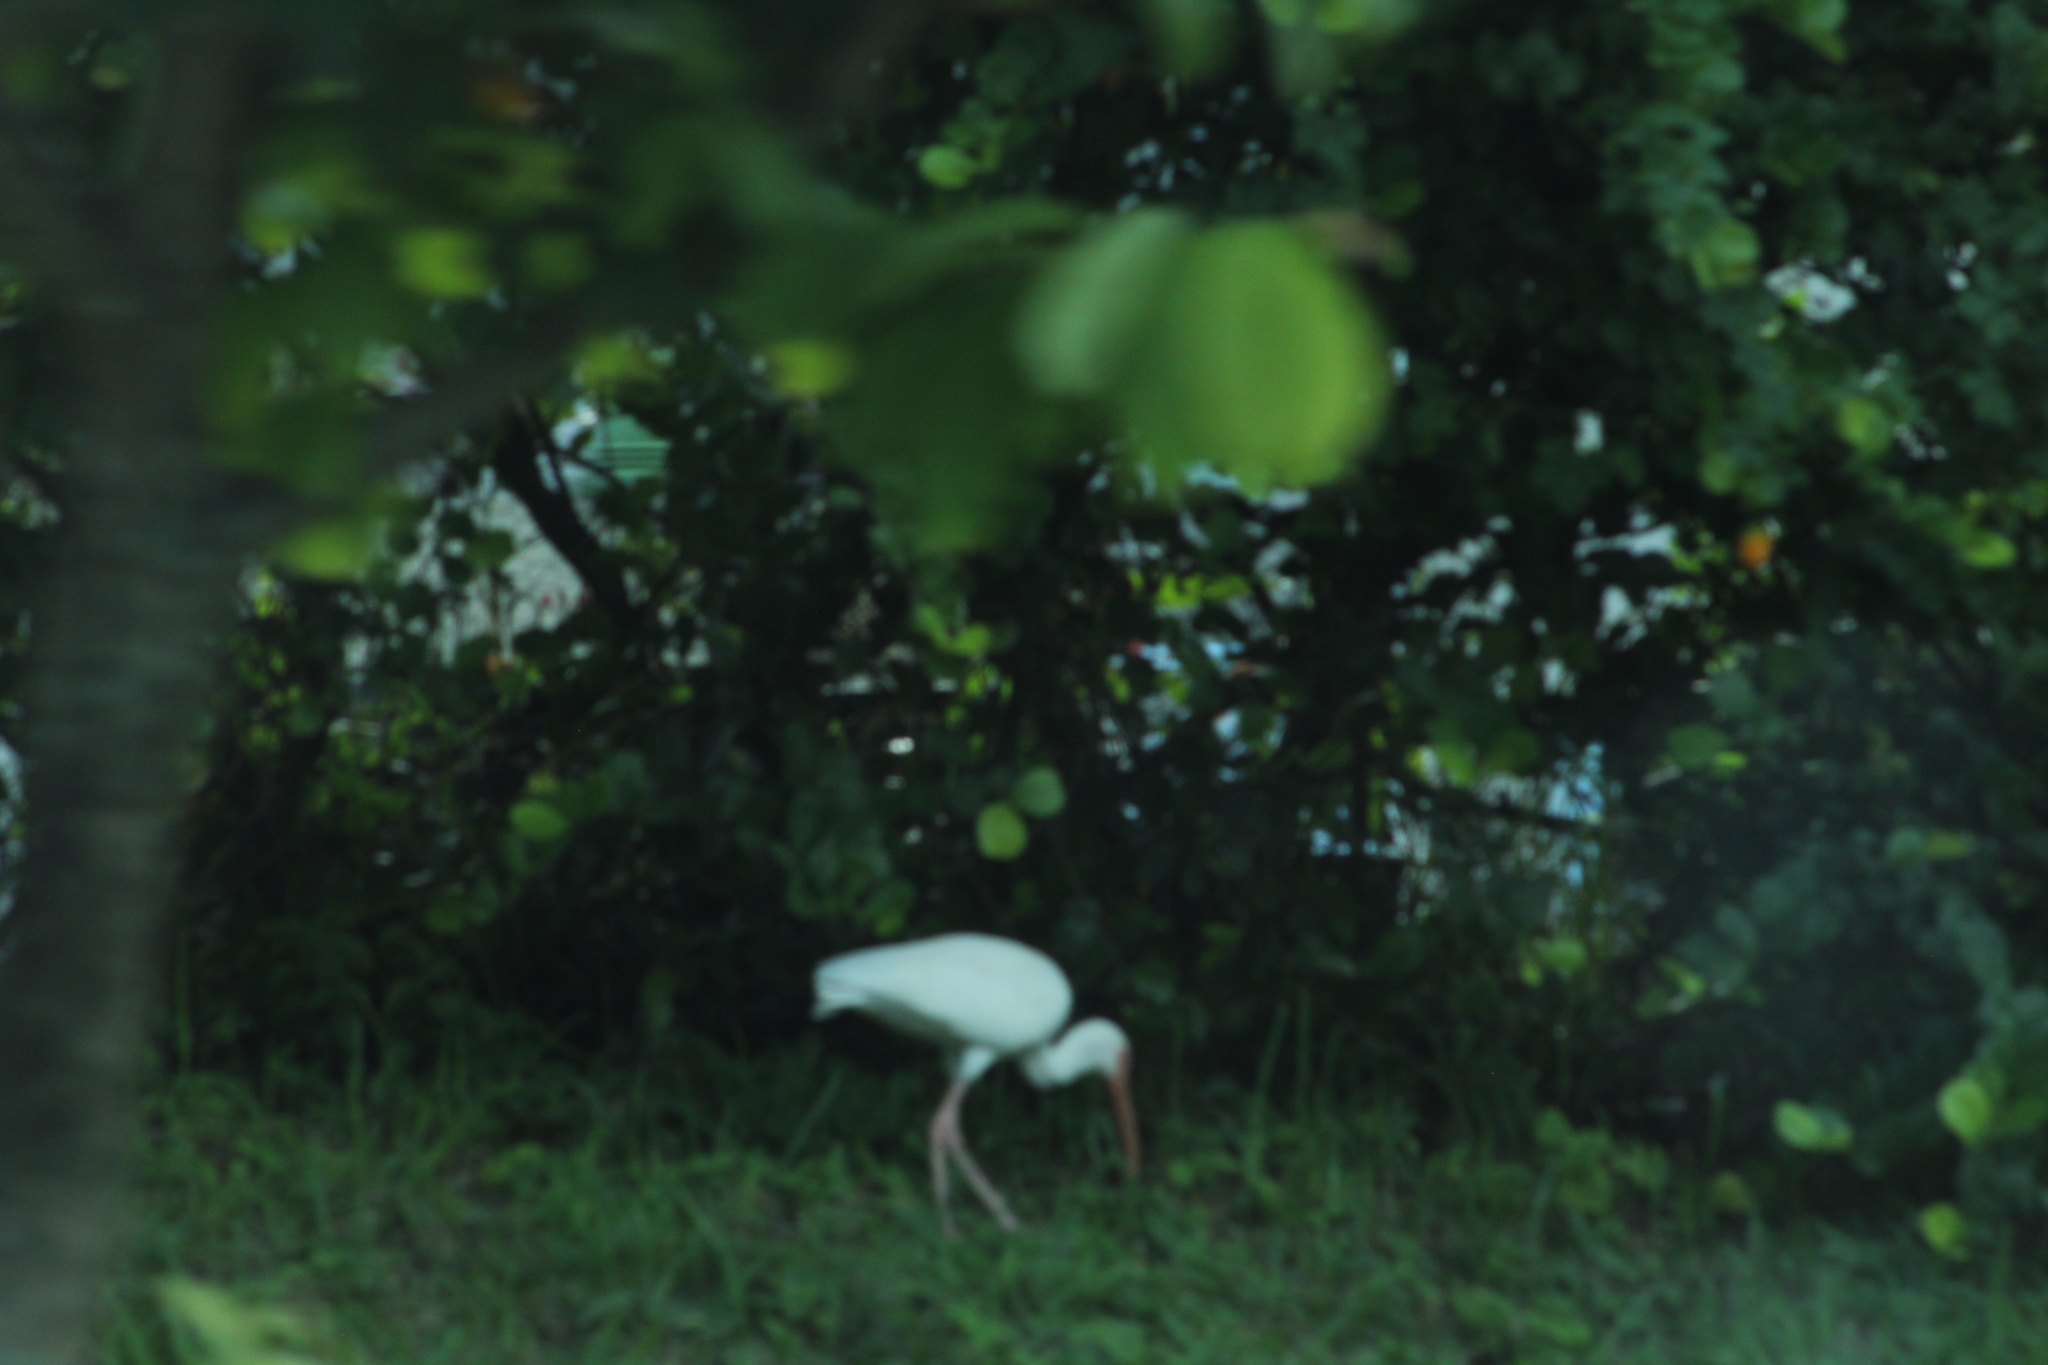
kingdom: Animalia
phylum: Chordata
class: Aves
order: Pelecaniformes
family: Threskiornithidae
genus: Eudocimus
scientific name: Eudocimus albus
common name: White ibis
